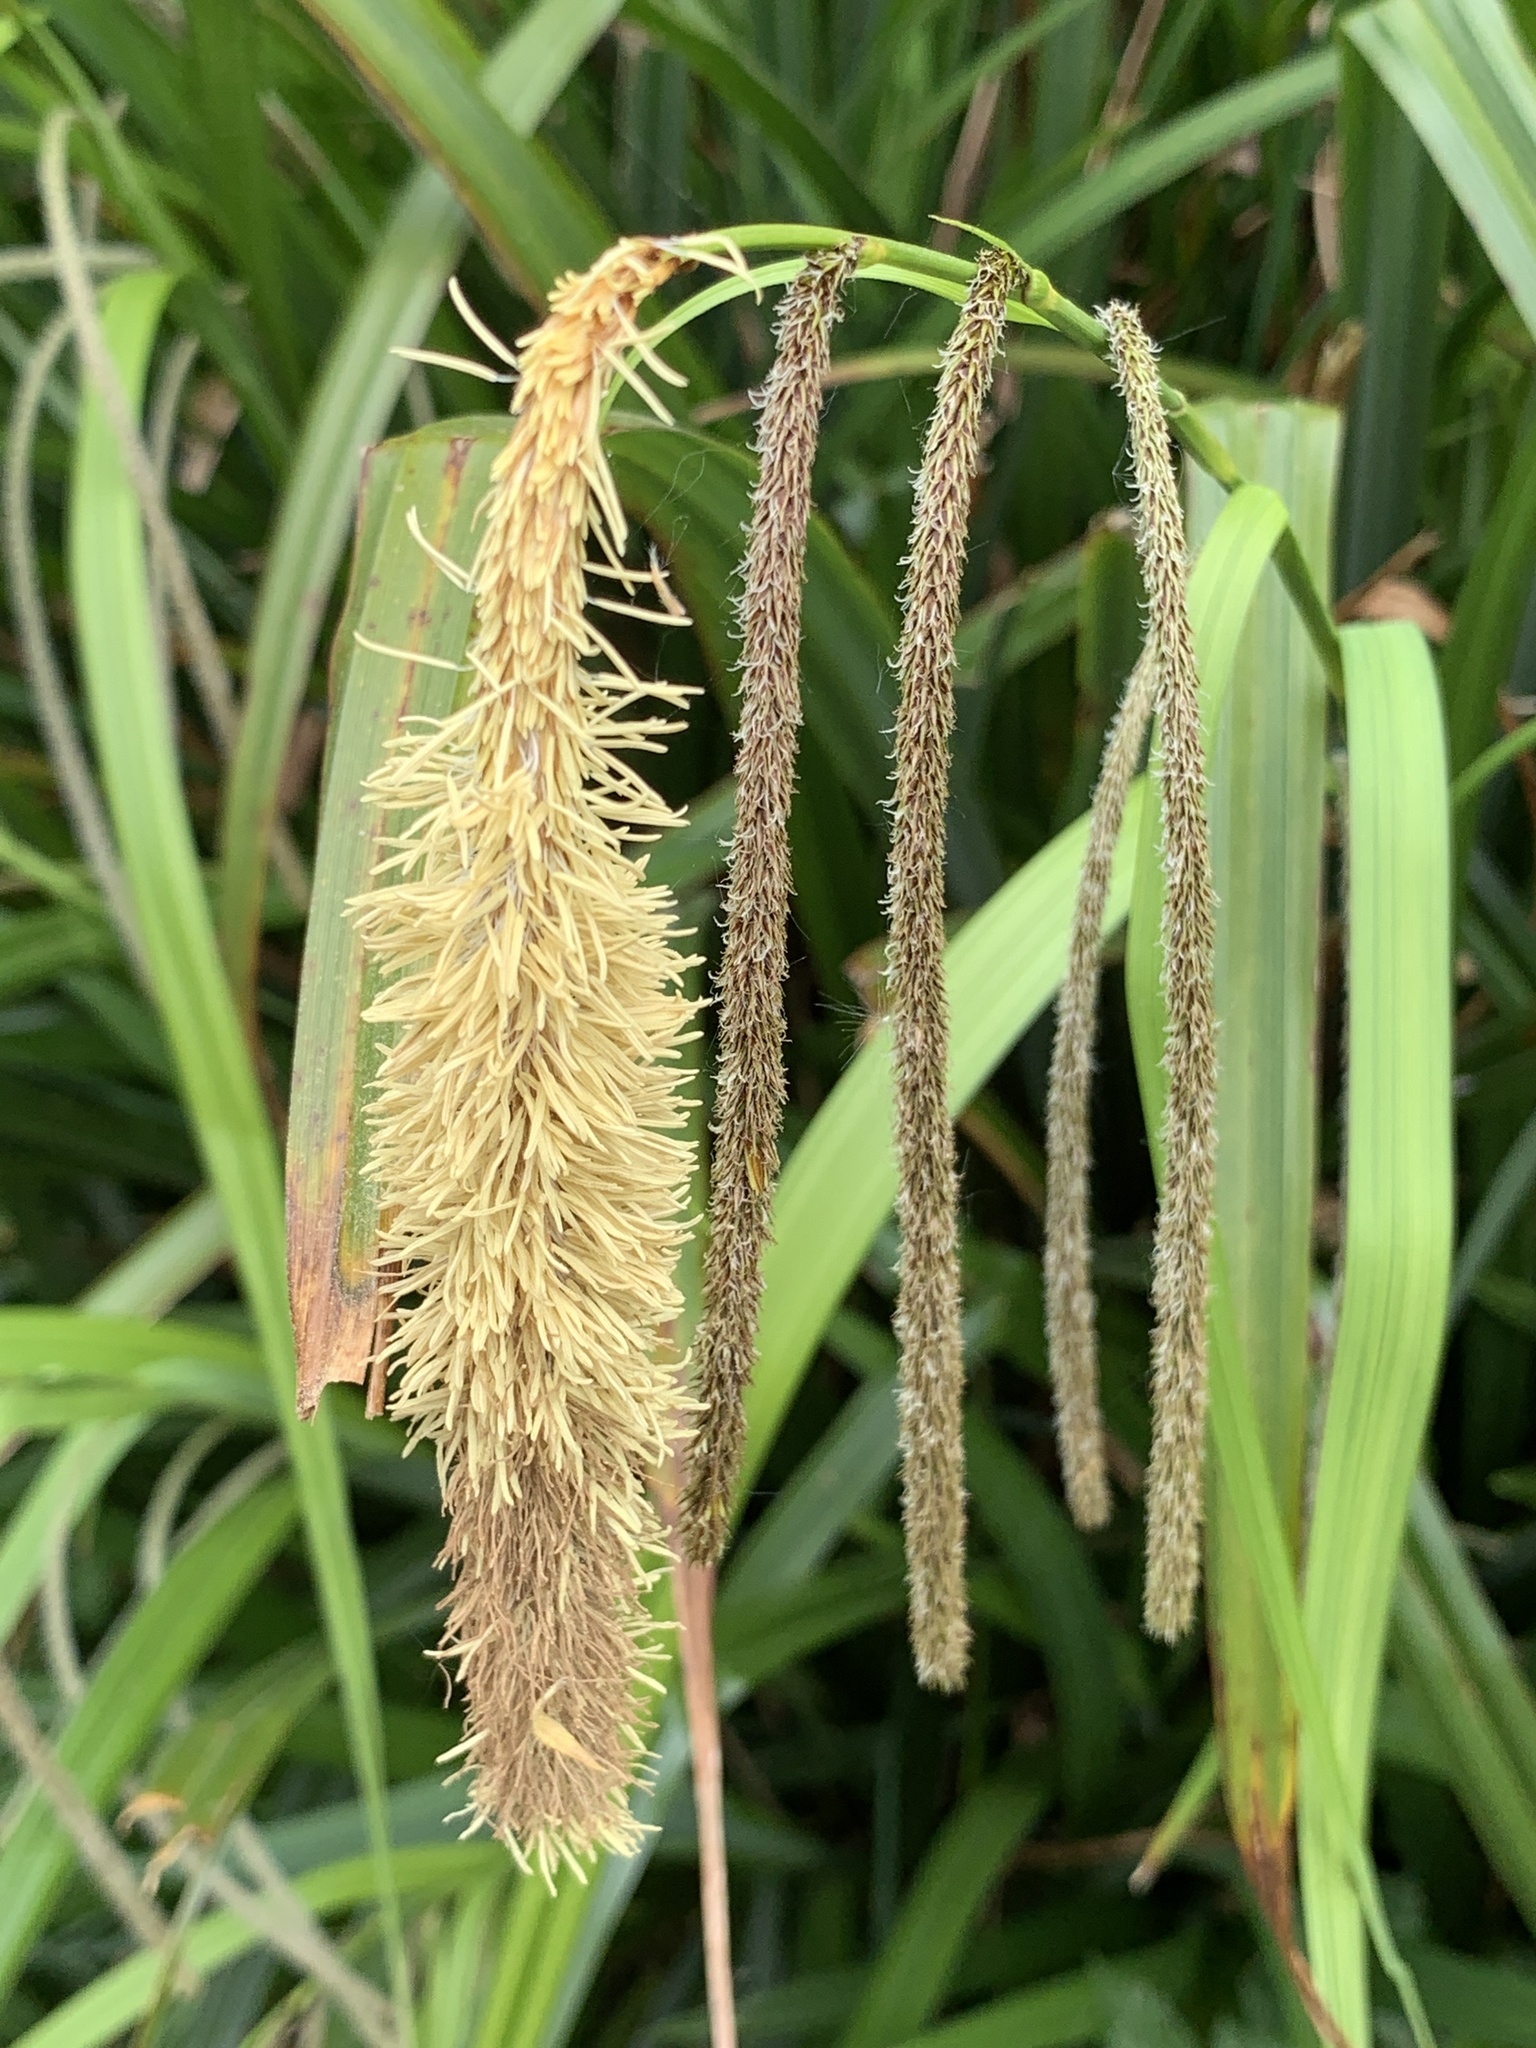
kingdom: Plantae
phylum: Tracheophyta
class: Liliopsida
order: Poales
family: Cyperaceae
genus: Carex
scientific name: Carex pendula
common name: Pendulous sedge
